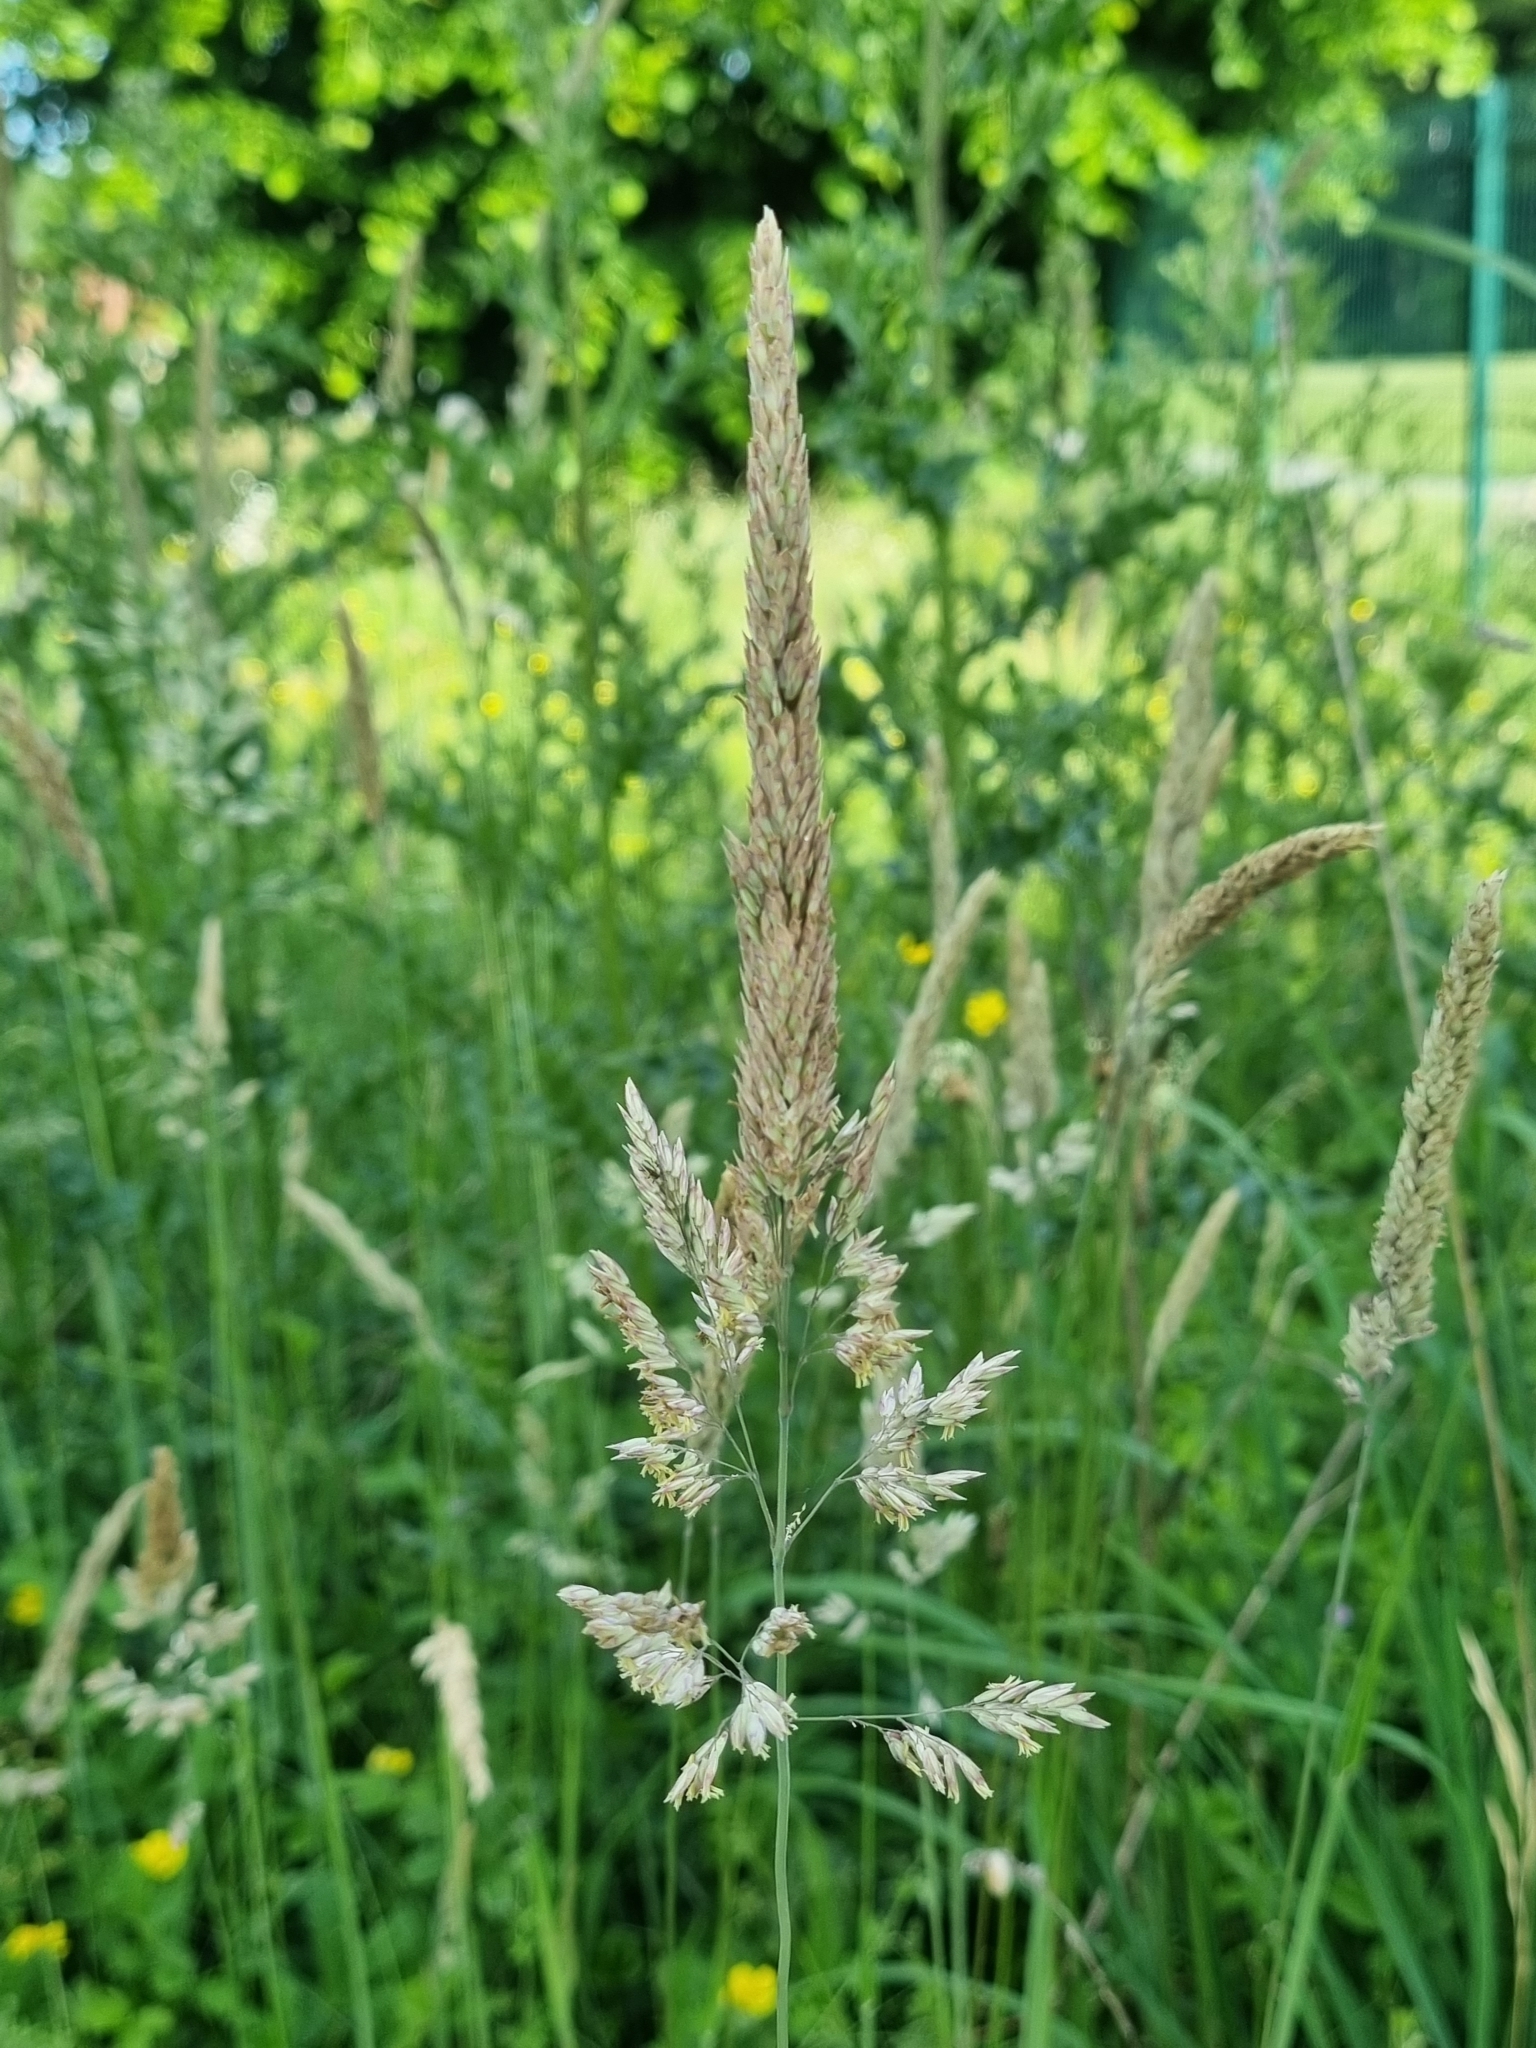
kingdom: Plantae
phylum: Tracheophyta
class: Liliopsida
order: Poales
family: Poaceae
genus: Holcus
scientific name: Holcus lanatus
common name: Yorkshire-fog
